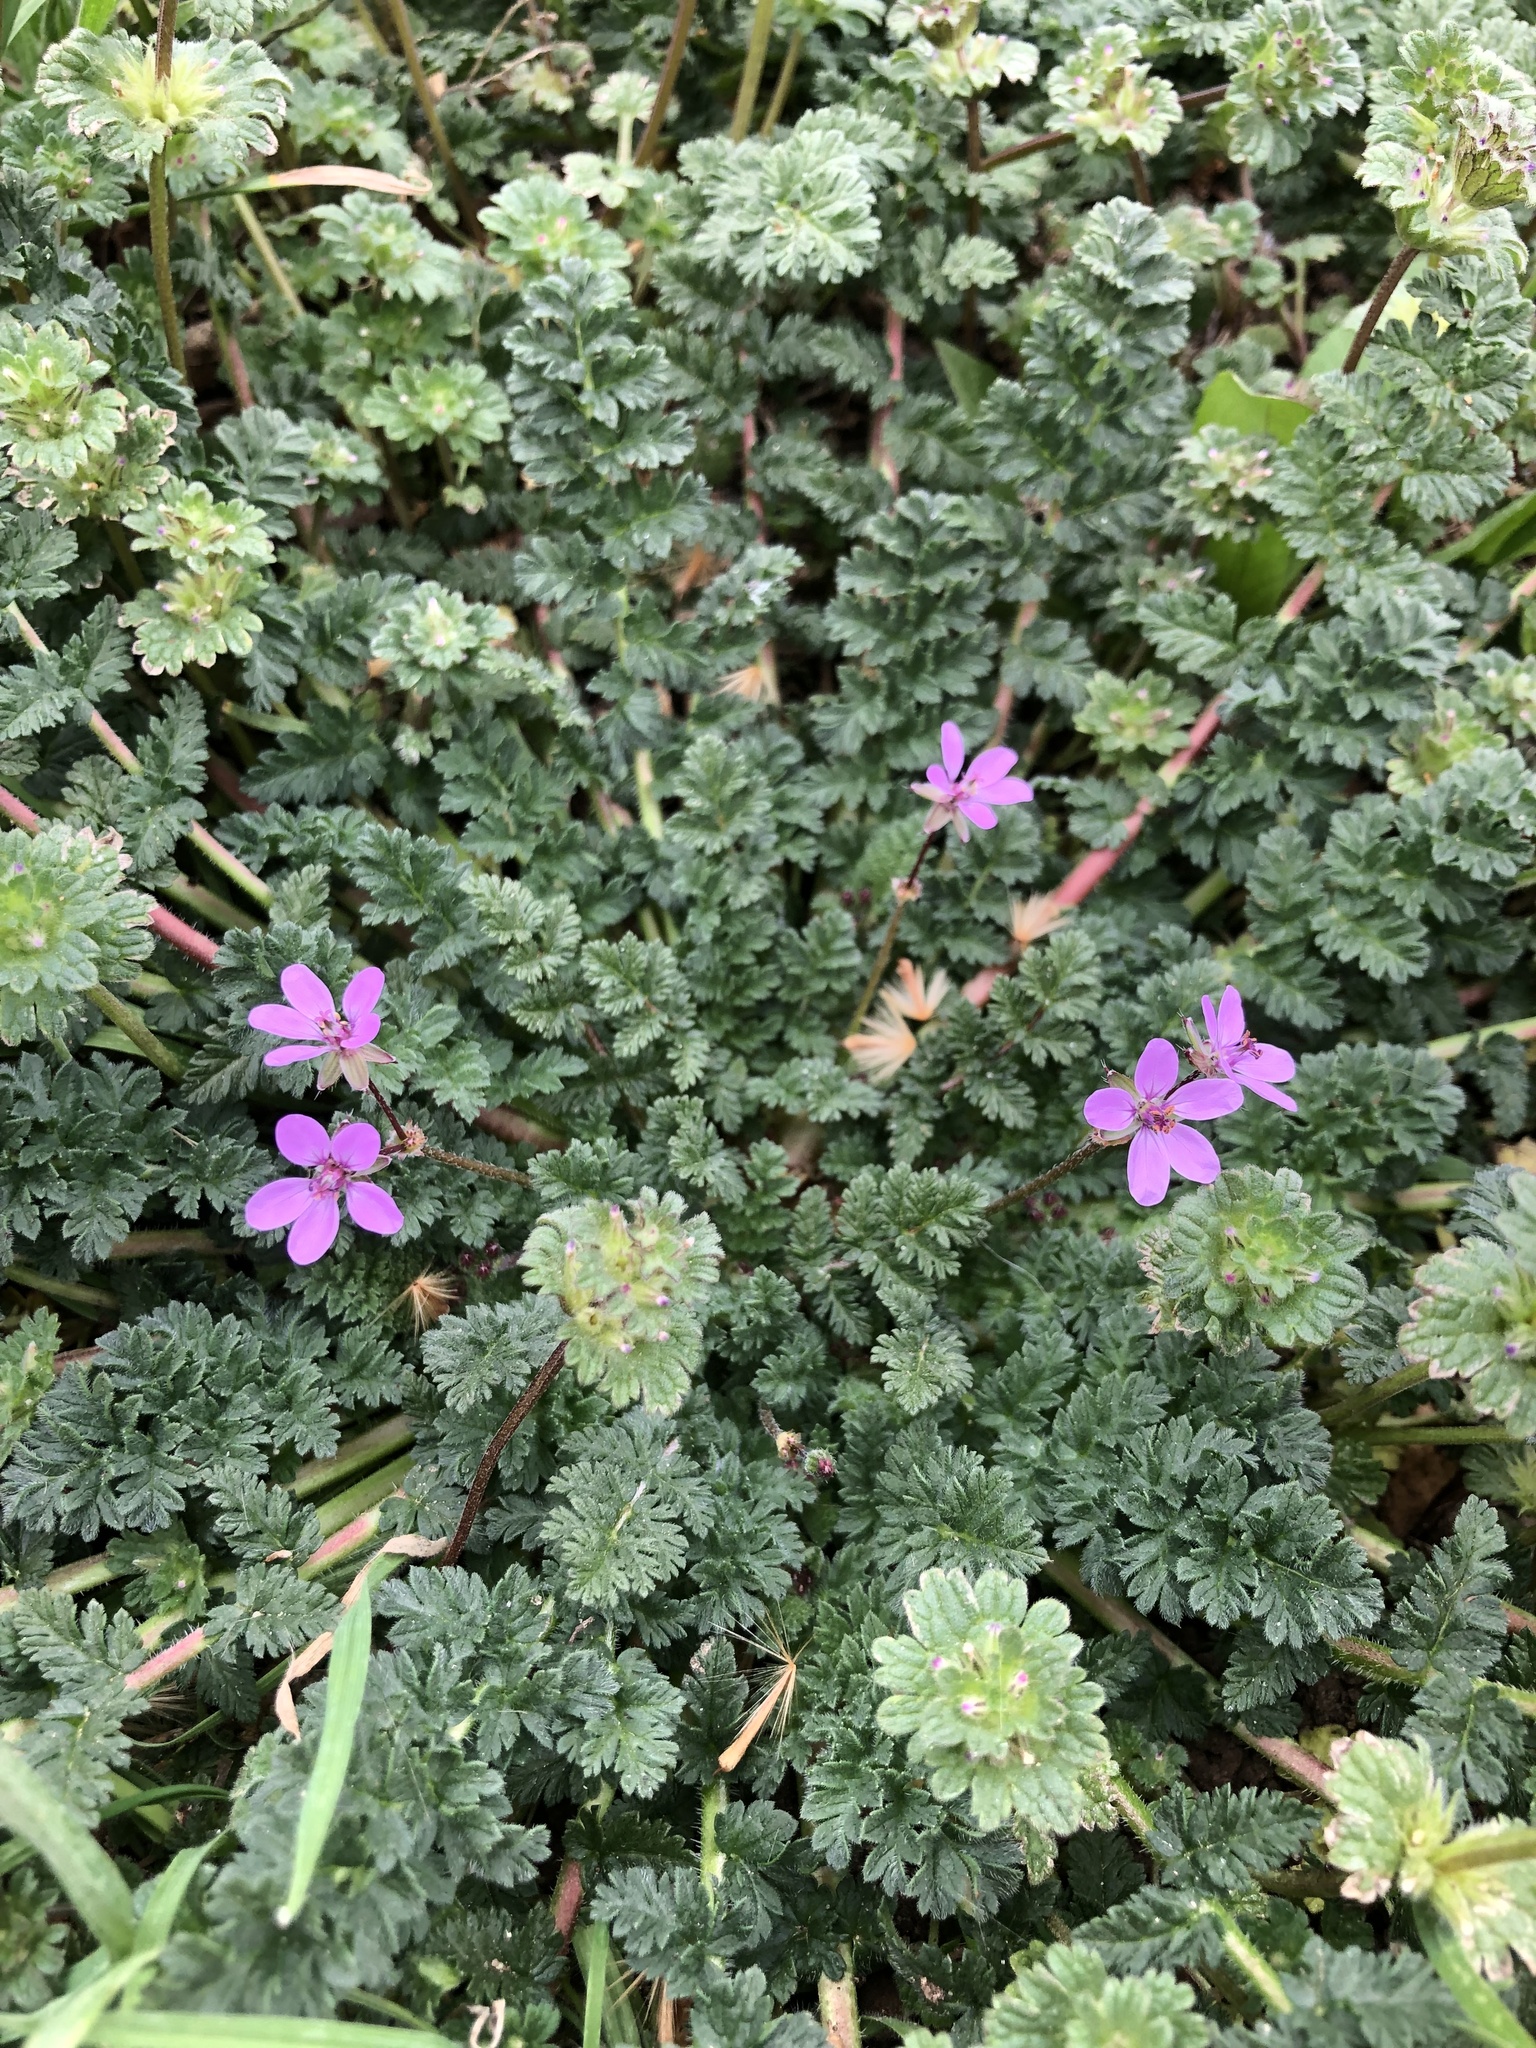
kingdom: Plantae
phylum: Tracheophyta
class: Magnoliopsida
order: Geraniales
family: Geraniaceae
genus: Erodium
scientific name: Erodium cicutarium
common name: Common stork's-bill
